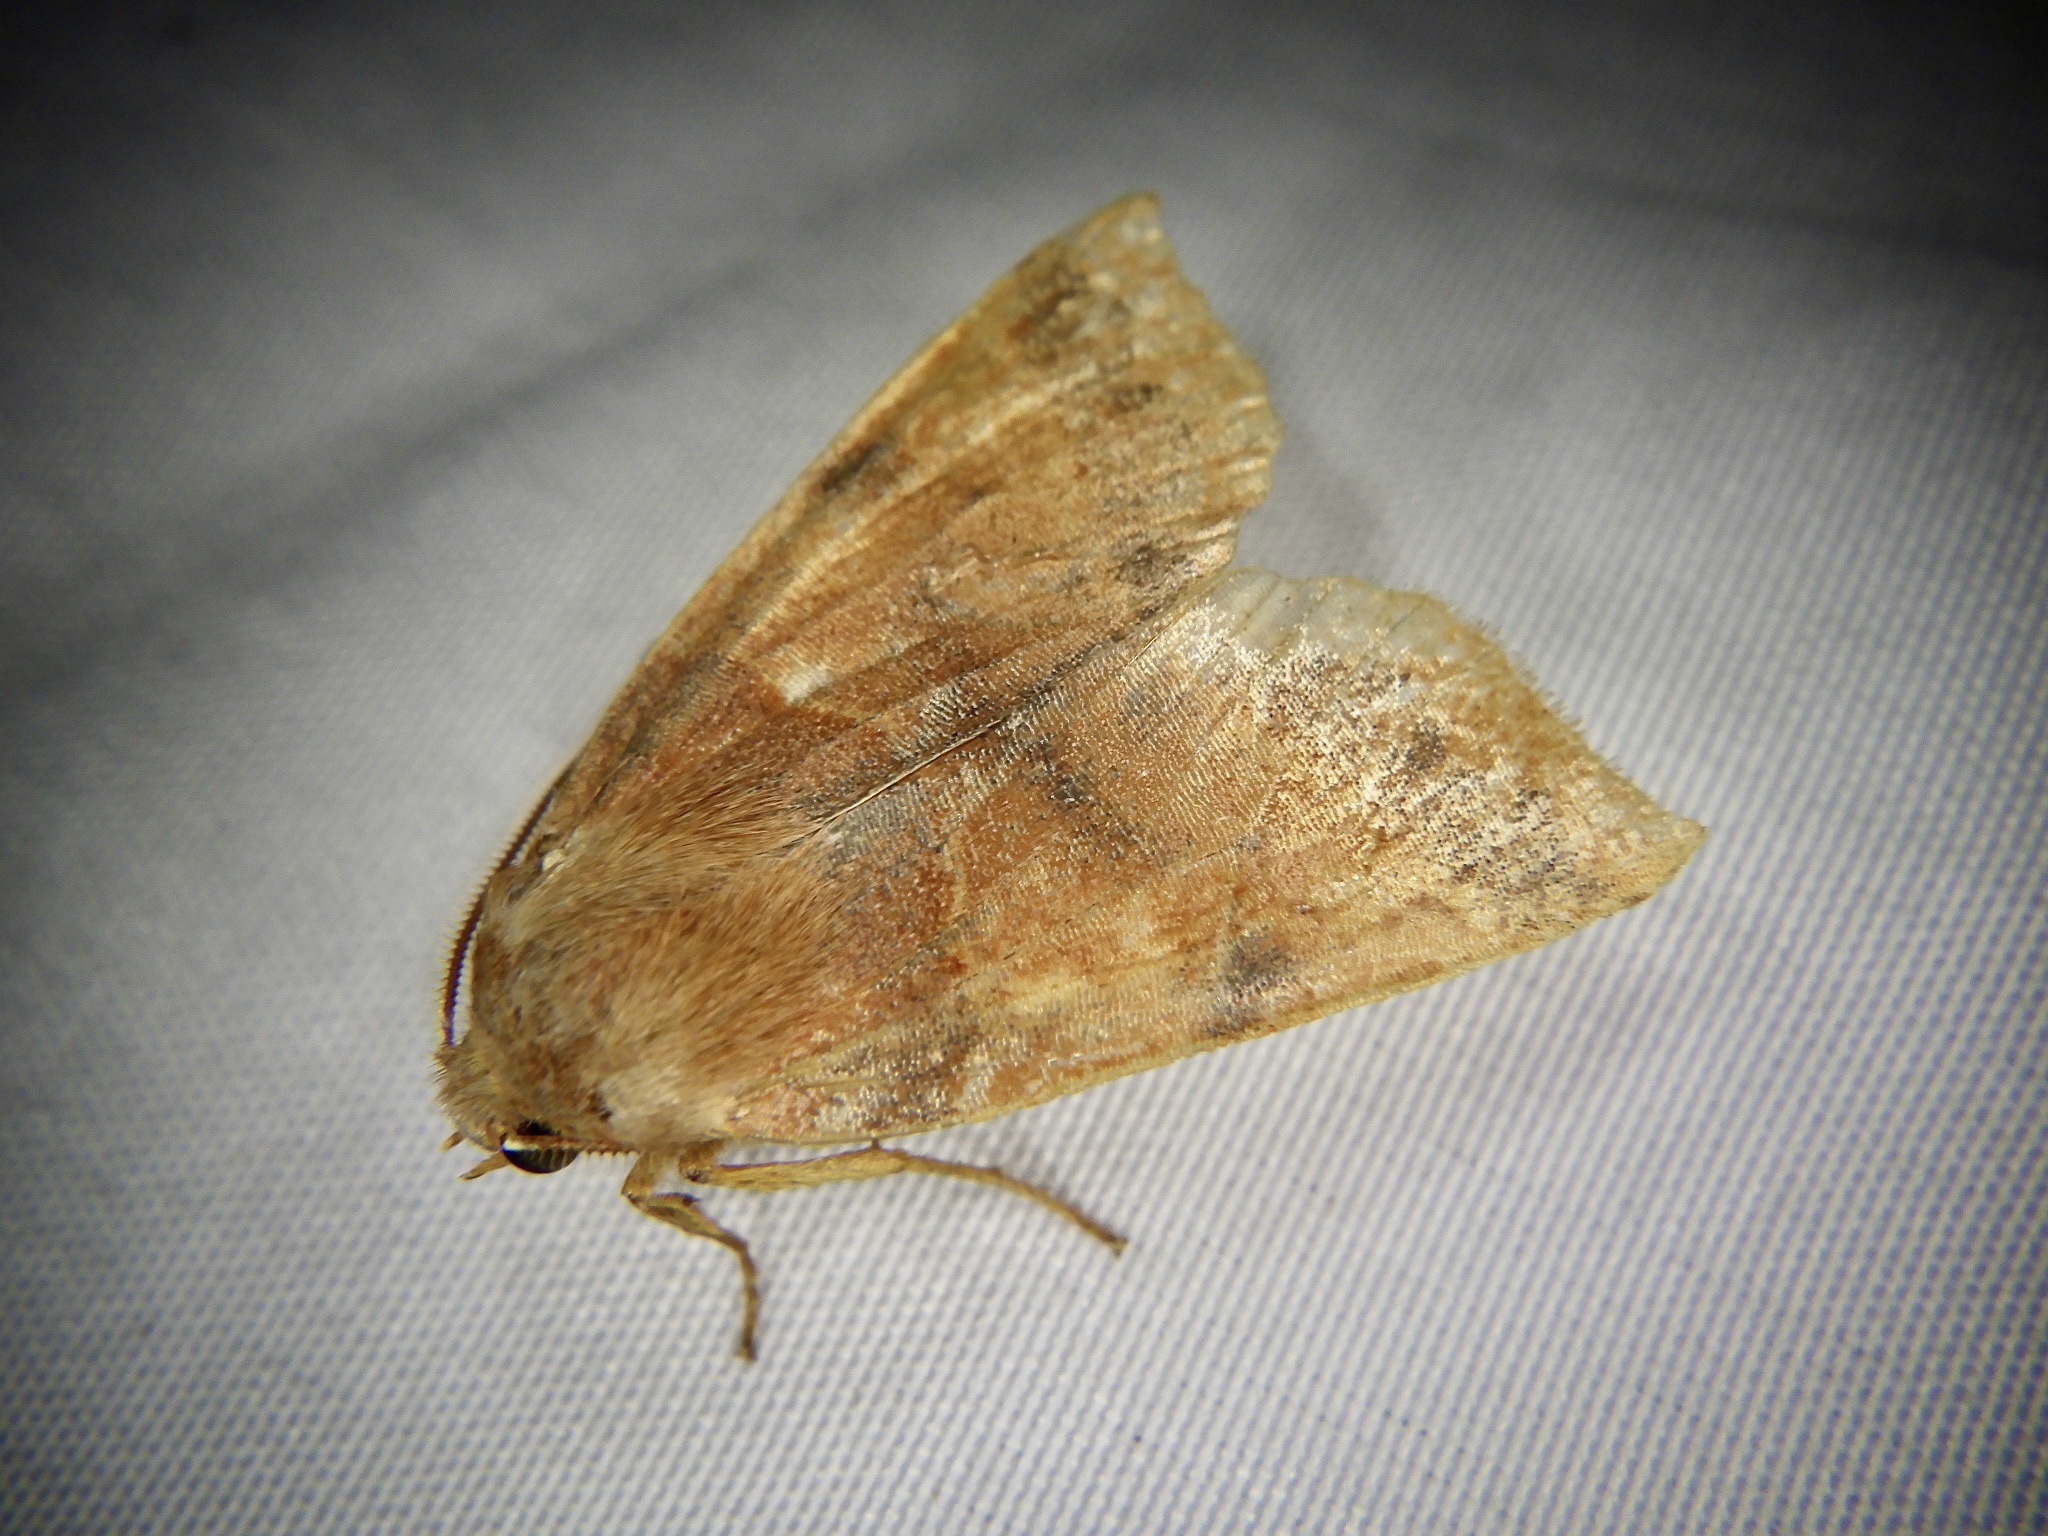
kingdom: Animalia
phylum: Arthropoda
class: Insecta
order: Lepidoptera
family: Noctuidae
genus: Telorta
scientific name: Telorta edentata
